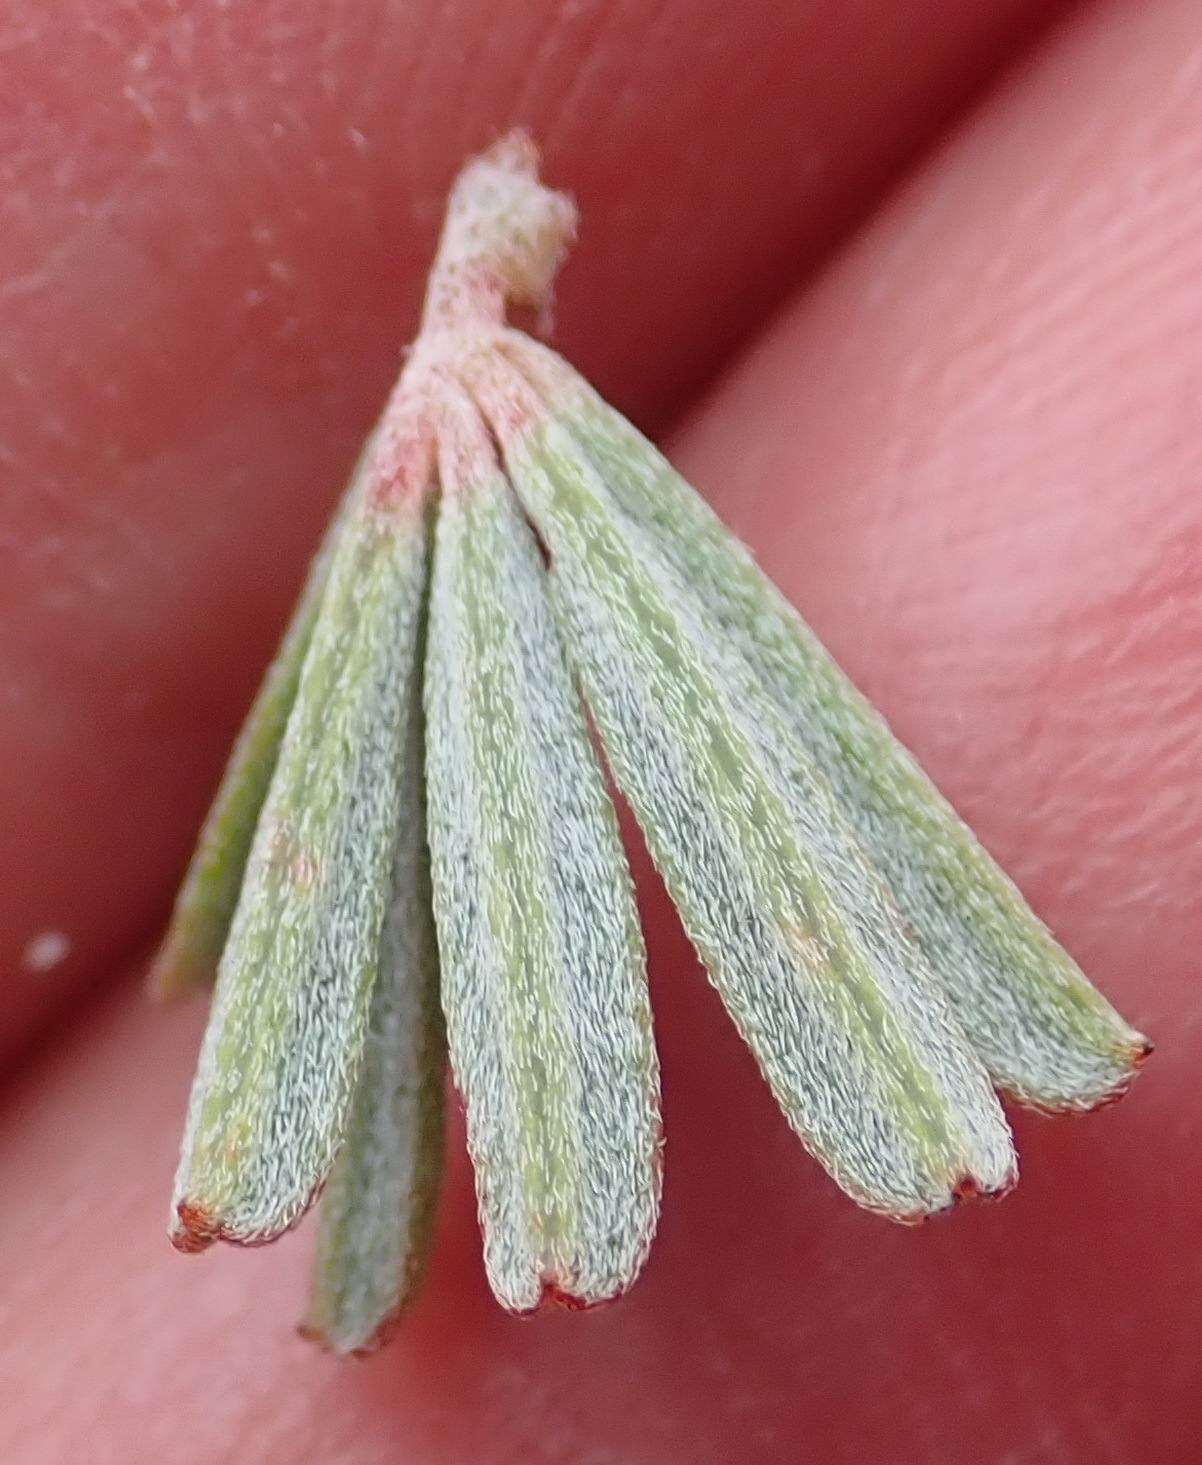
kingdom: Plantae
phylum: Tracheophyta
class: Magnoliopsida
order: Fabales
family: Fabaceae
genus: Indigofera
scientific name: Indigofera flabellata
